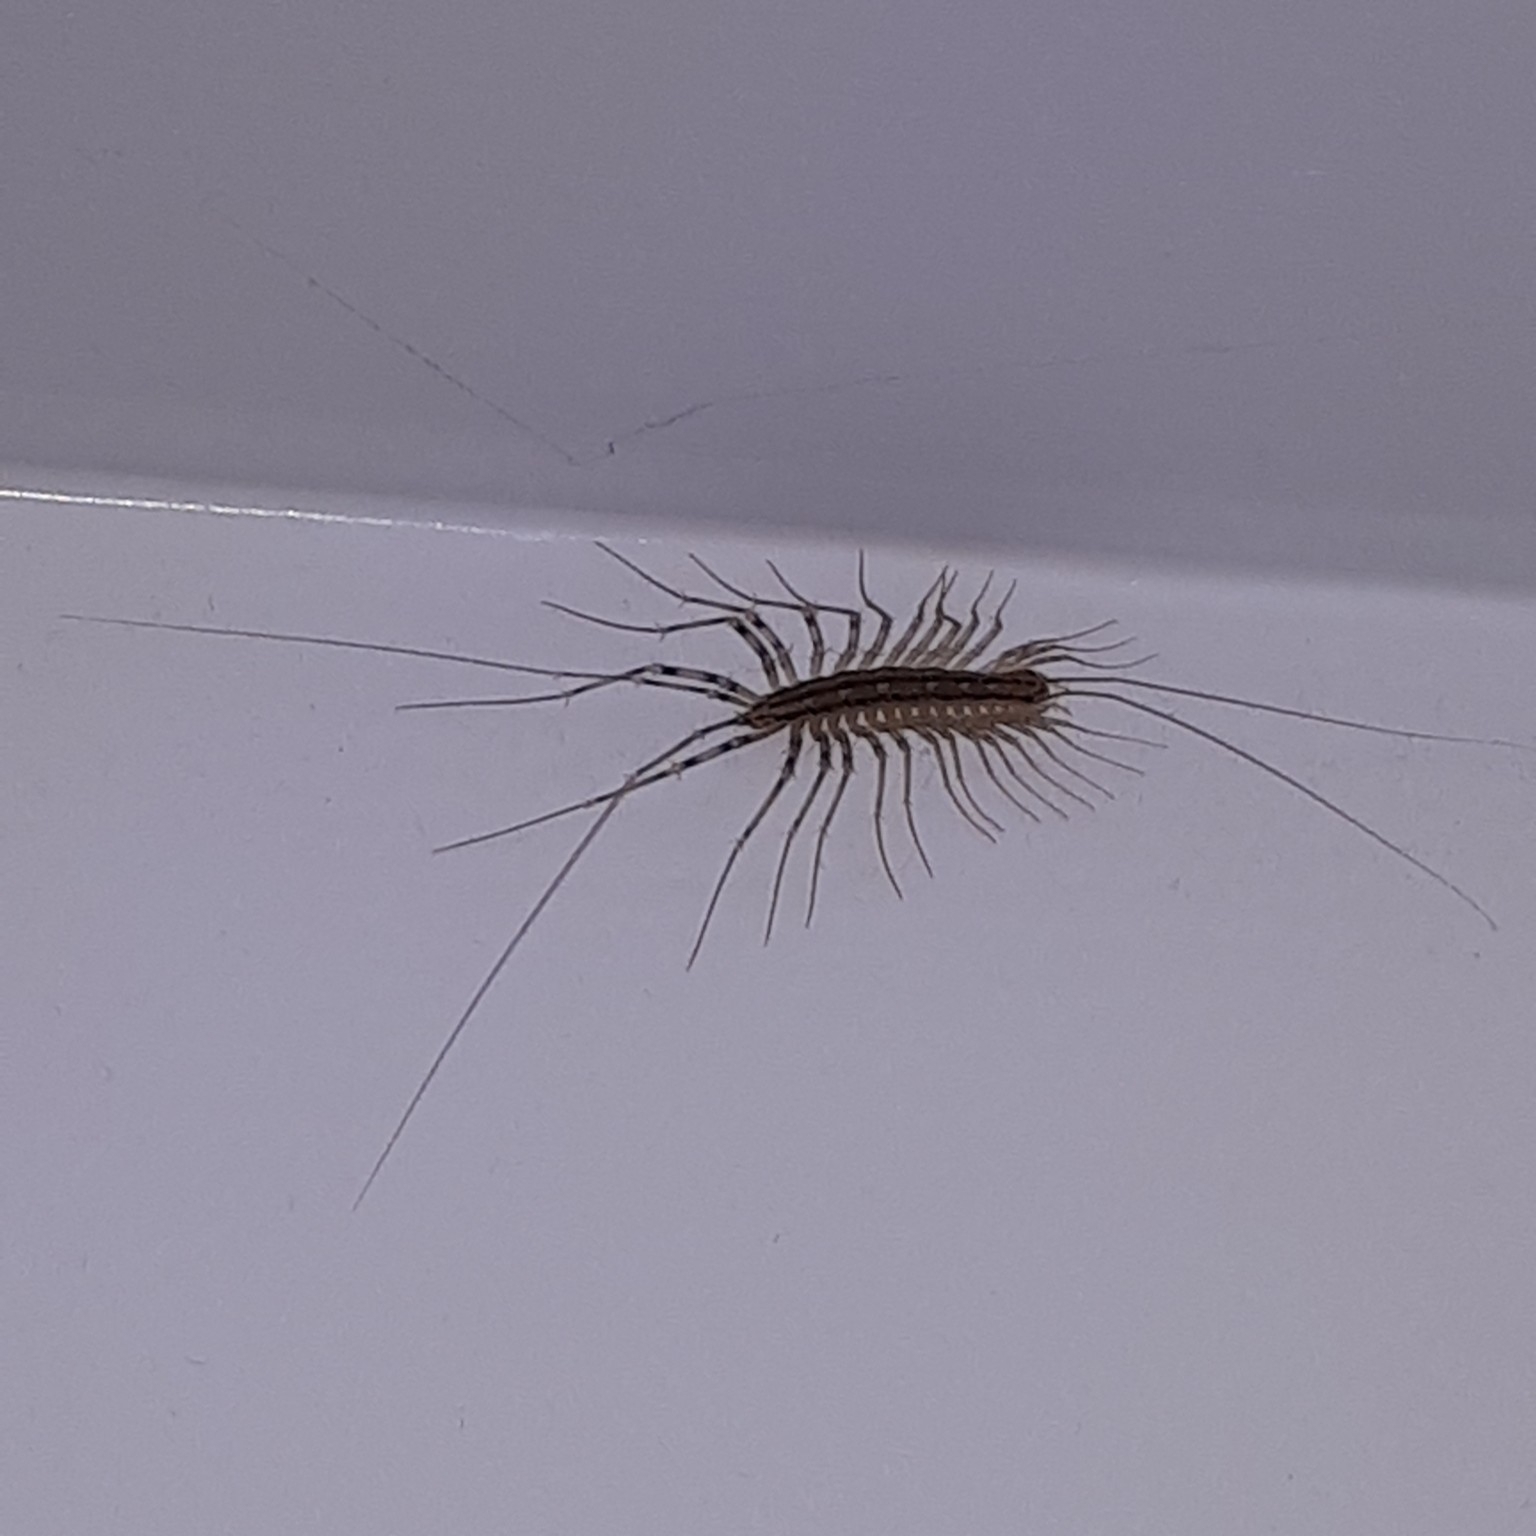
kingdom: Animalia
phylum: Arthropoda
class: Chilopoda
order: Scutigeromorpha
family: Scutigeridae
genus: Scutigera
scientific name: Scutigera coleoptrata
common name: House centipede
